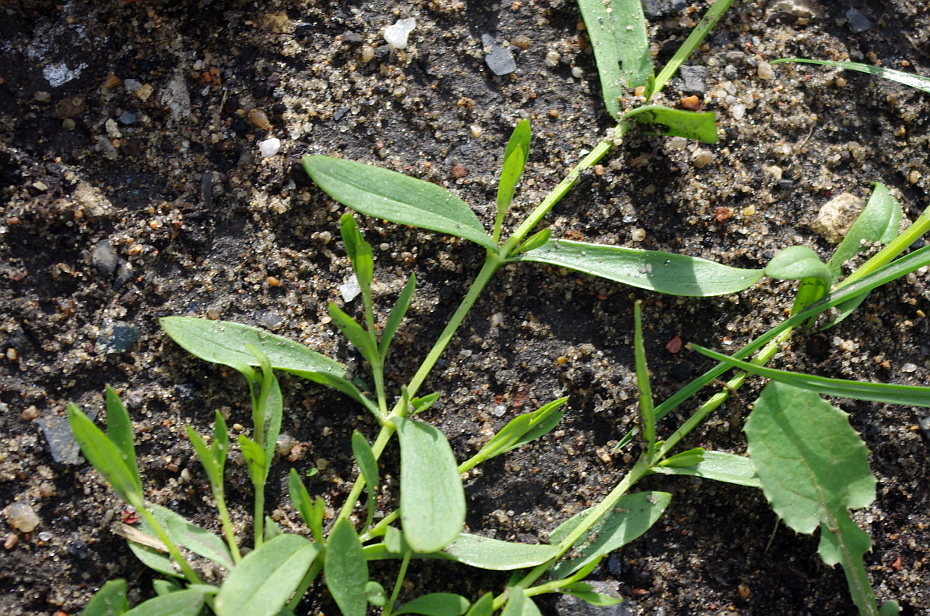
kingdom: Plantae
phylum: Tracheophyta
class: Magnoliopsida
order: Caryophyllales
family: Caryophyllaceae
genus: Stellaria
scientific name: Stellaria
